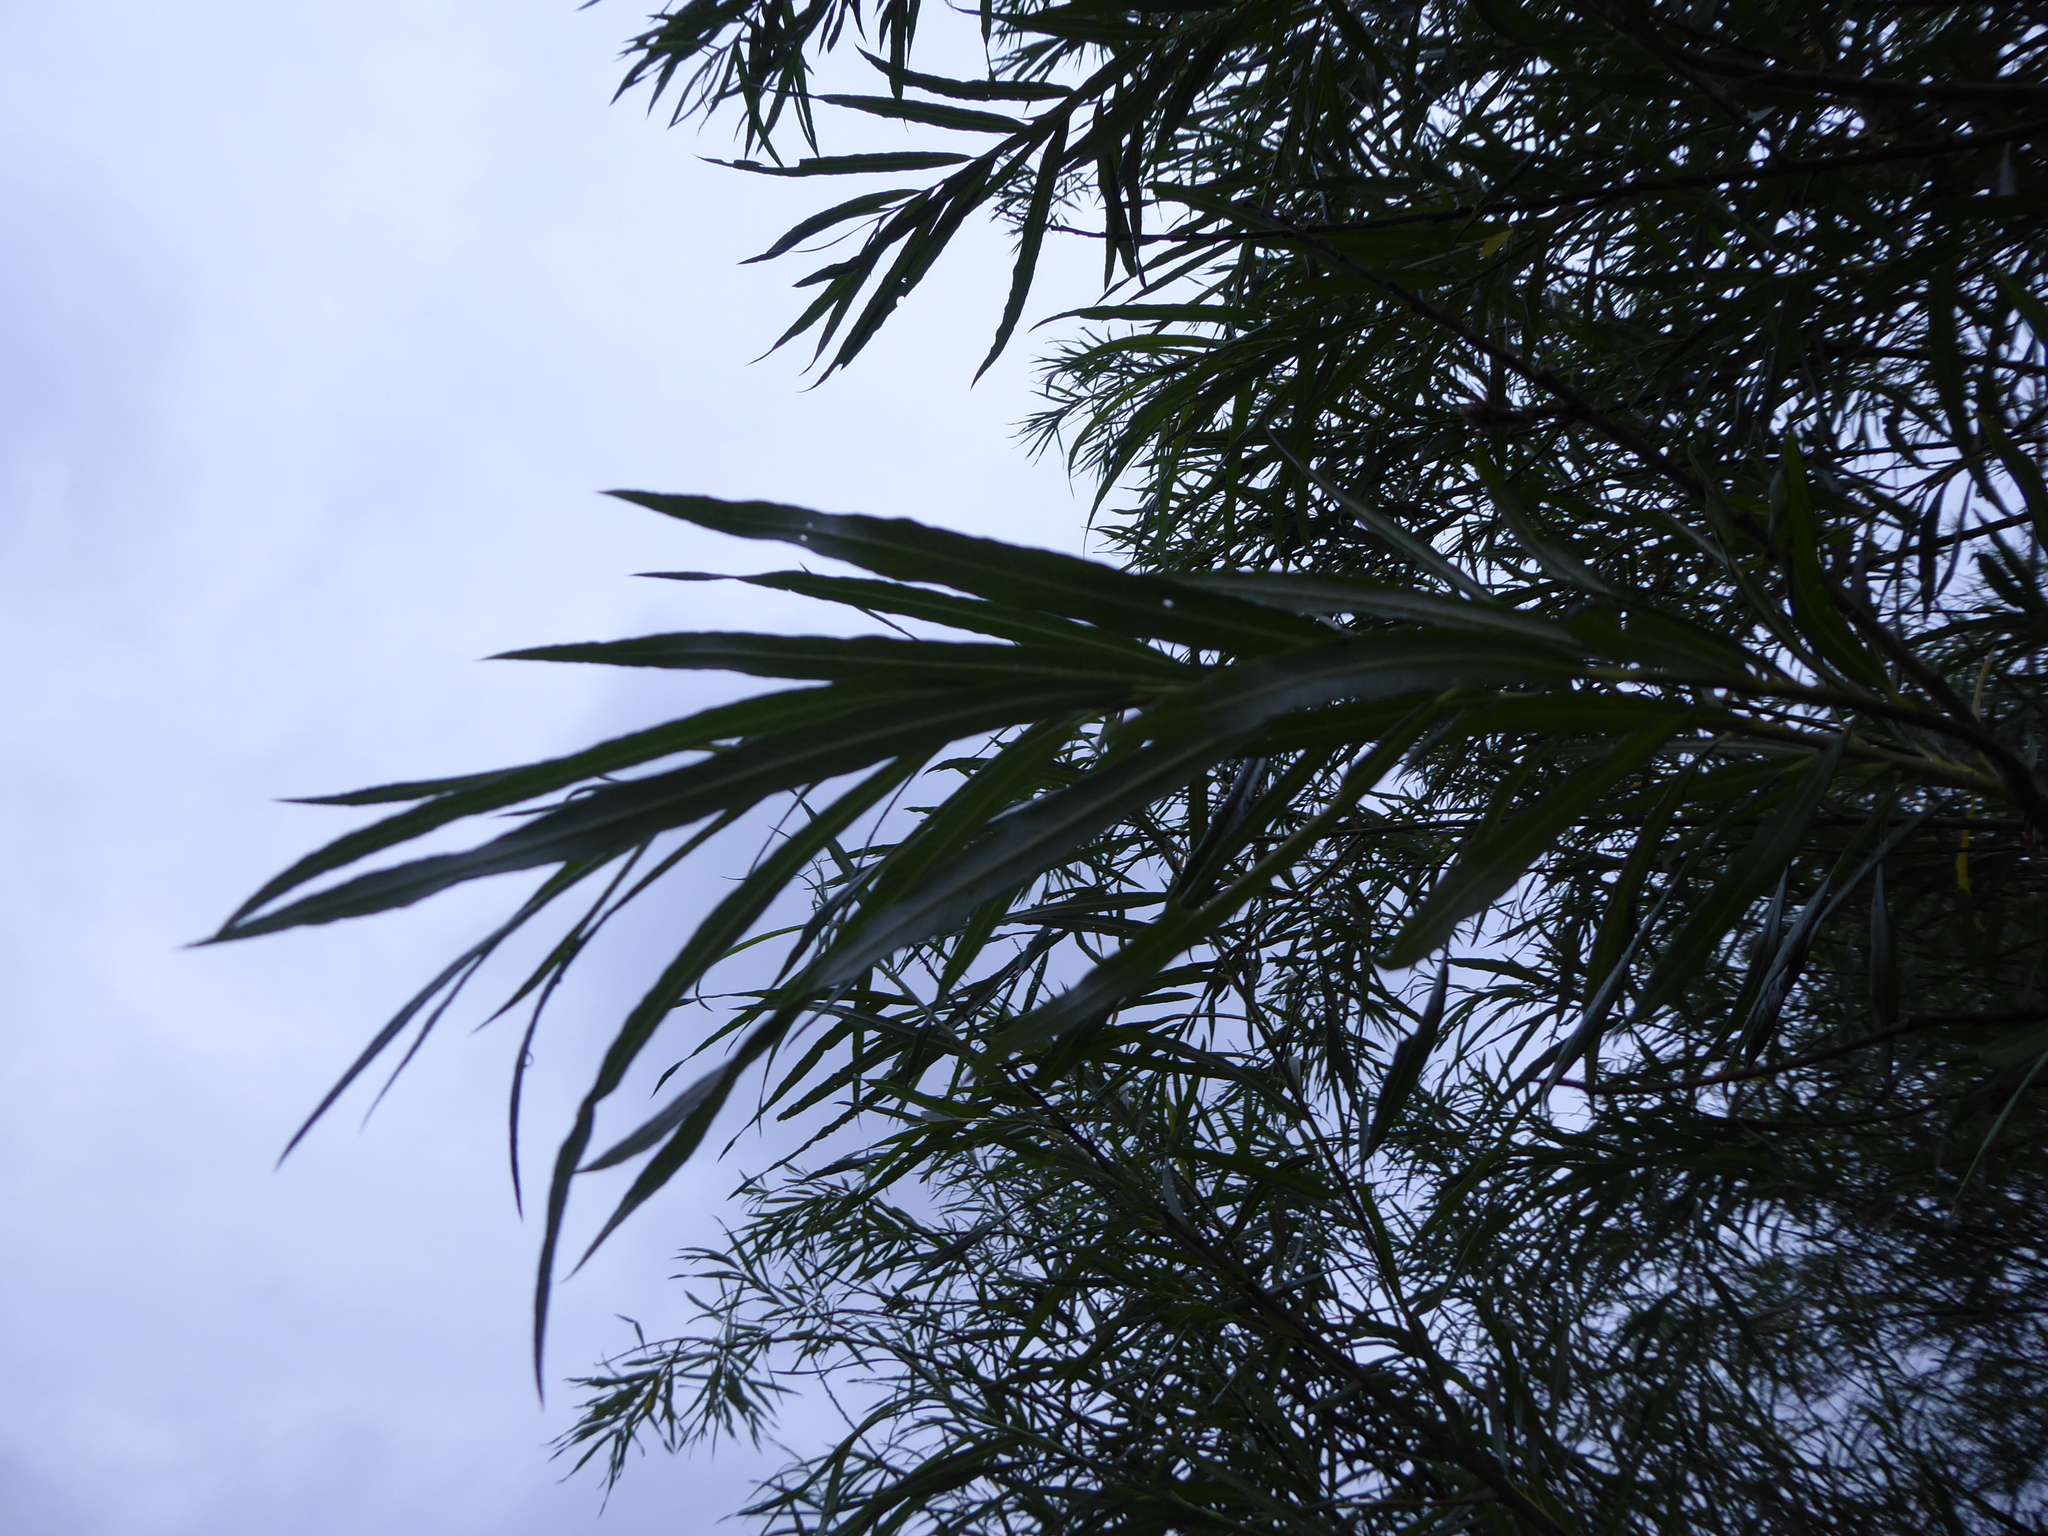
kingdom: Plantae
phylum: Tracheophyta
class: Magnoliopsida
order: Malpighiales
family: Salicaceae
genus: Salix
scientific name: Salix viminalis
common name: Osier
